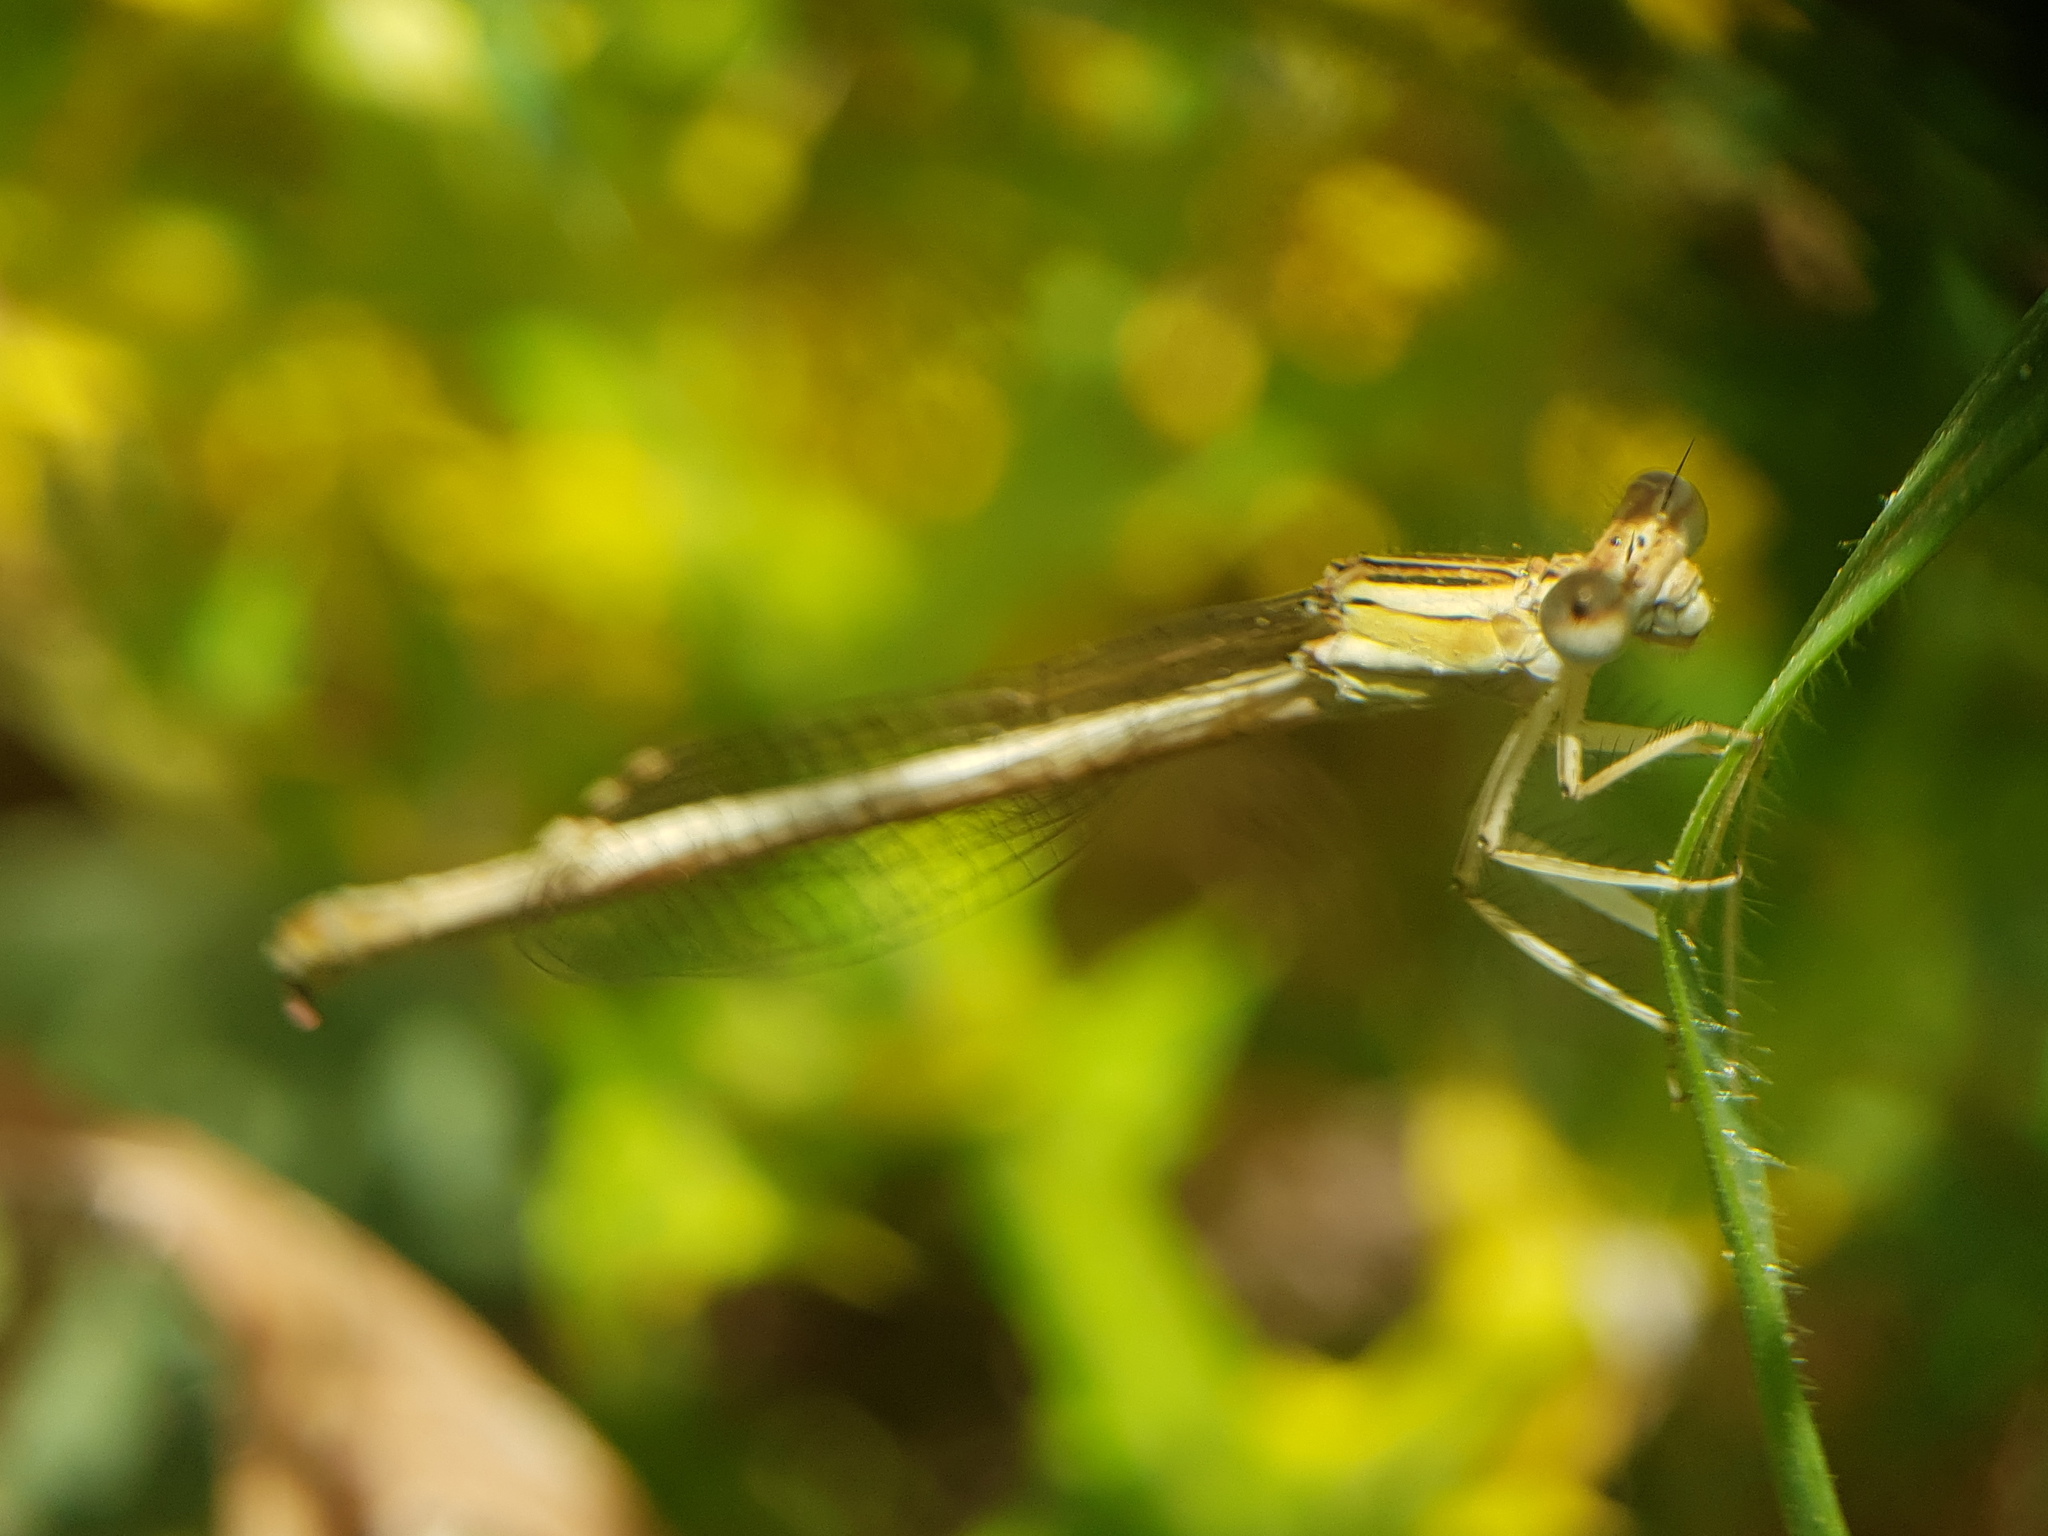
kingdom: Animalia
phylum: Arthropoda
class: Insecta
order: Odonata
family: Platycnemididae
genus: Platycnemis
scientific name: Platycnemis dealbata
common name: Ivory featherleg
